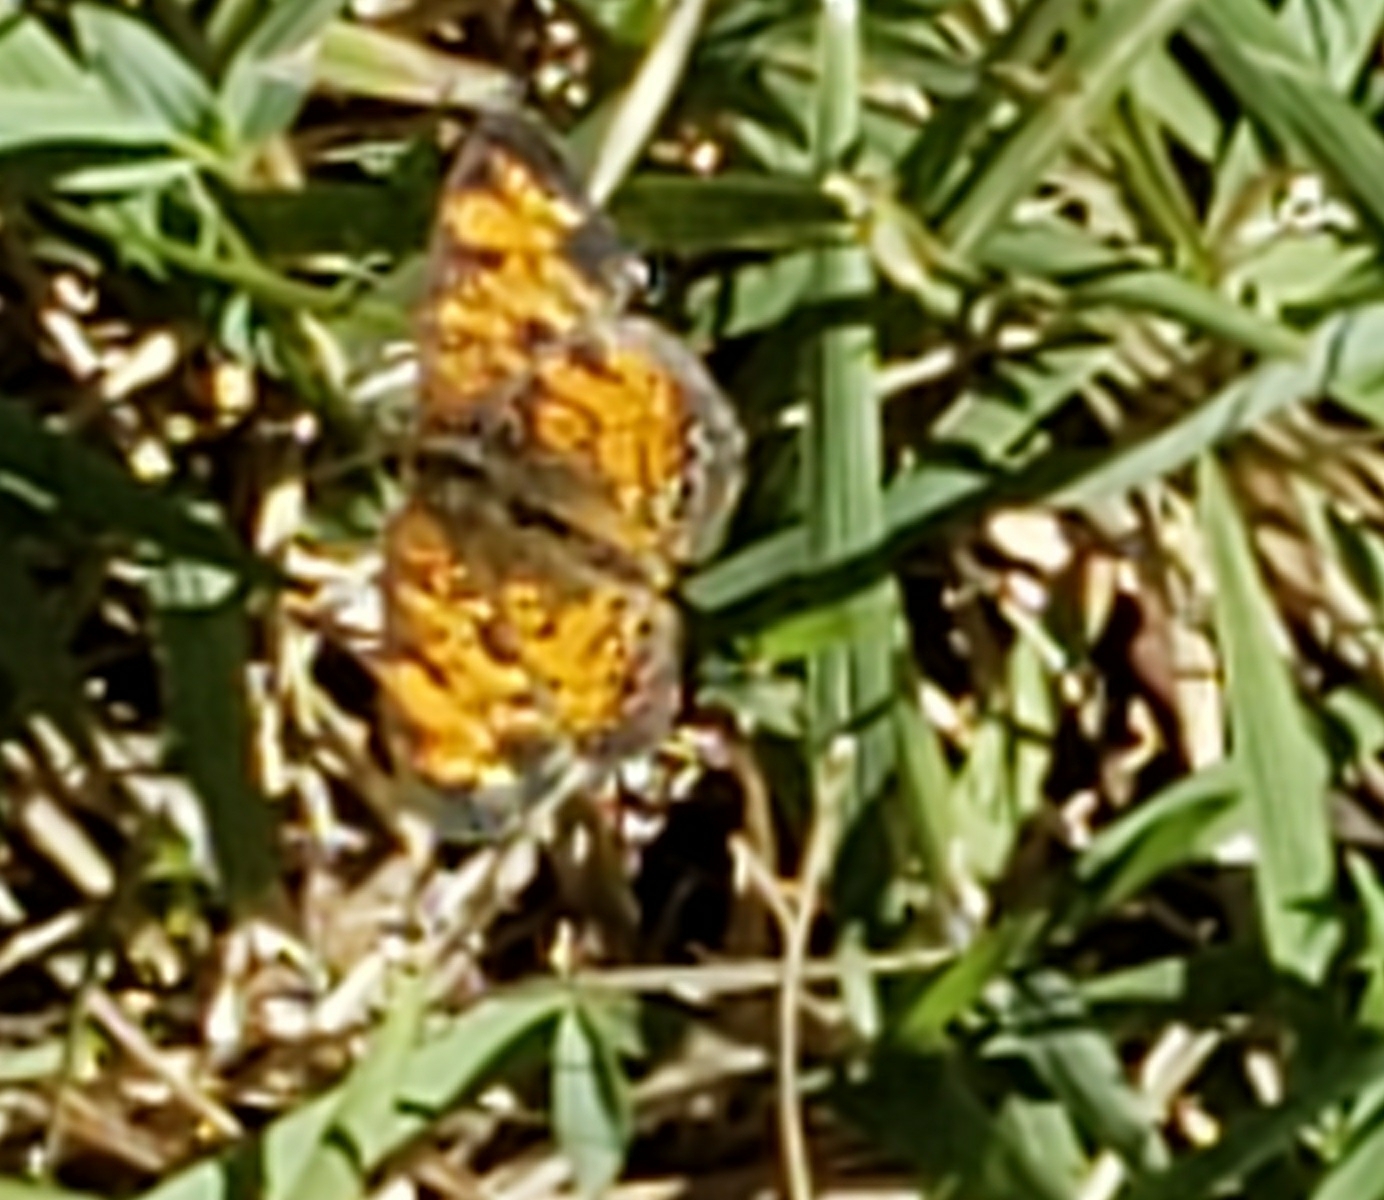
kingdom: Animalia
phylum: Arthropoda
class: Insecta
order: Lepidoptera
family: Nymphalidae
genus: Phyciodes
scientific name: Phyciodes tharos
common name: Pearl crescent
